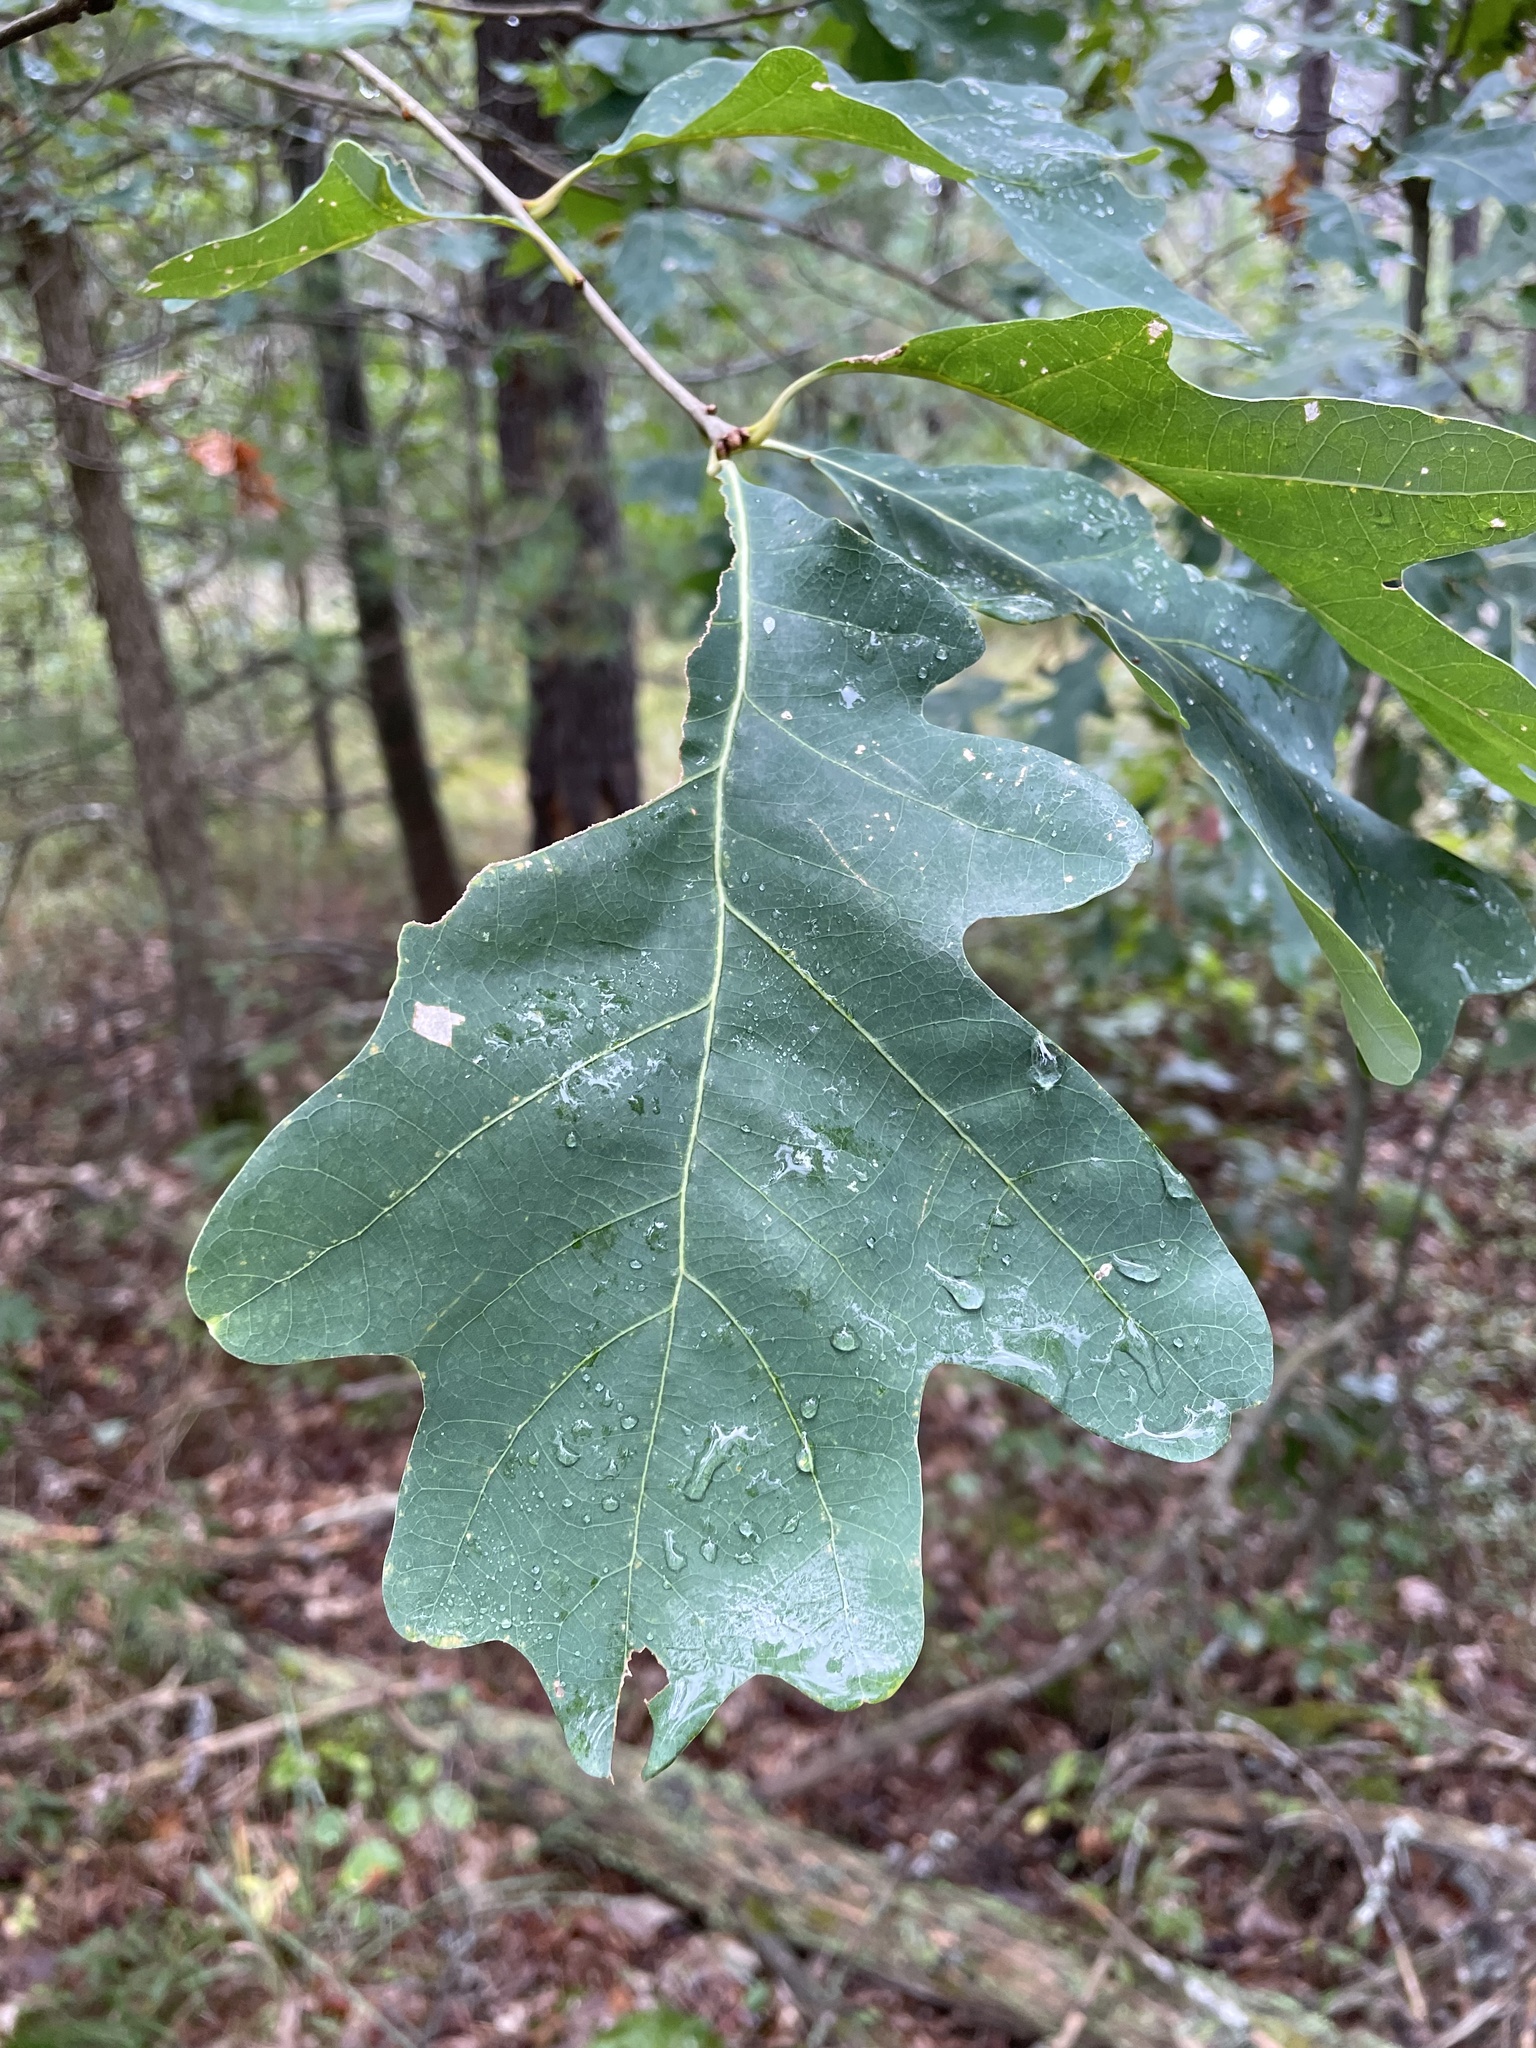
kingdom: Plantae
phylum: Tracheophyta
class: Magnoliopsida
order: Fagales
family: Fagaceae
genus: Quercus
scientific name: Quercus alba
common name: White oak
